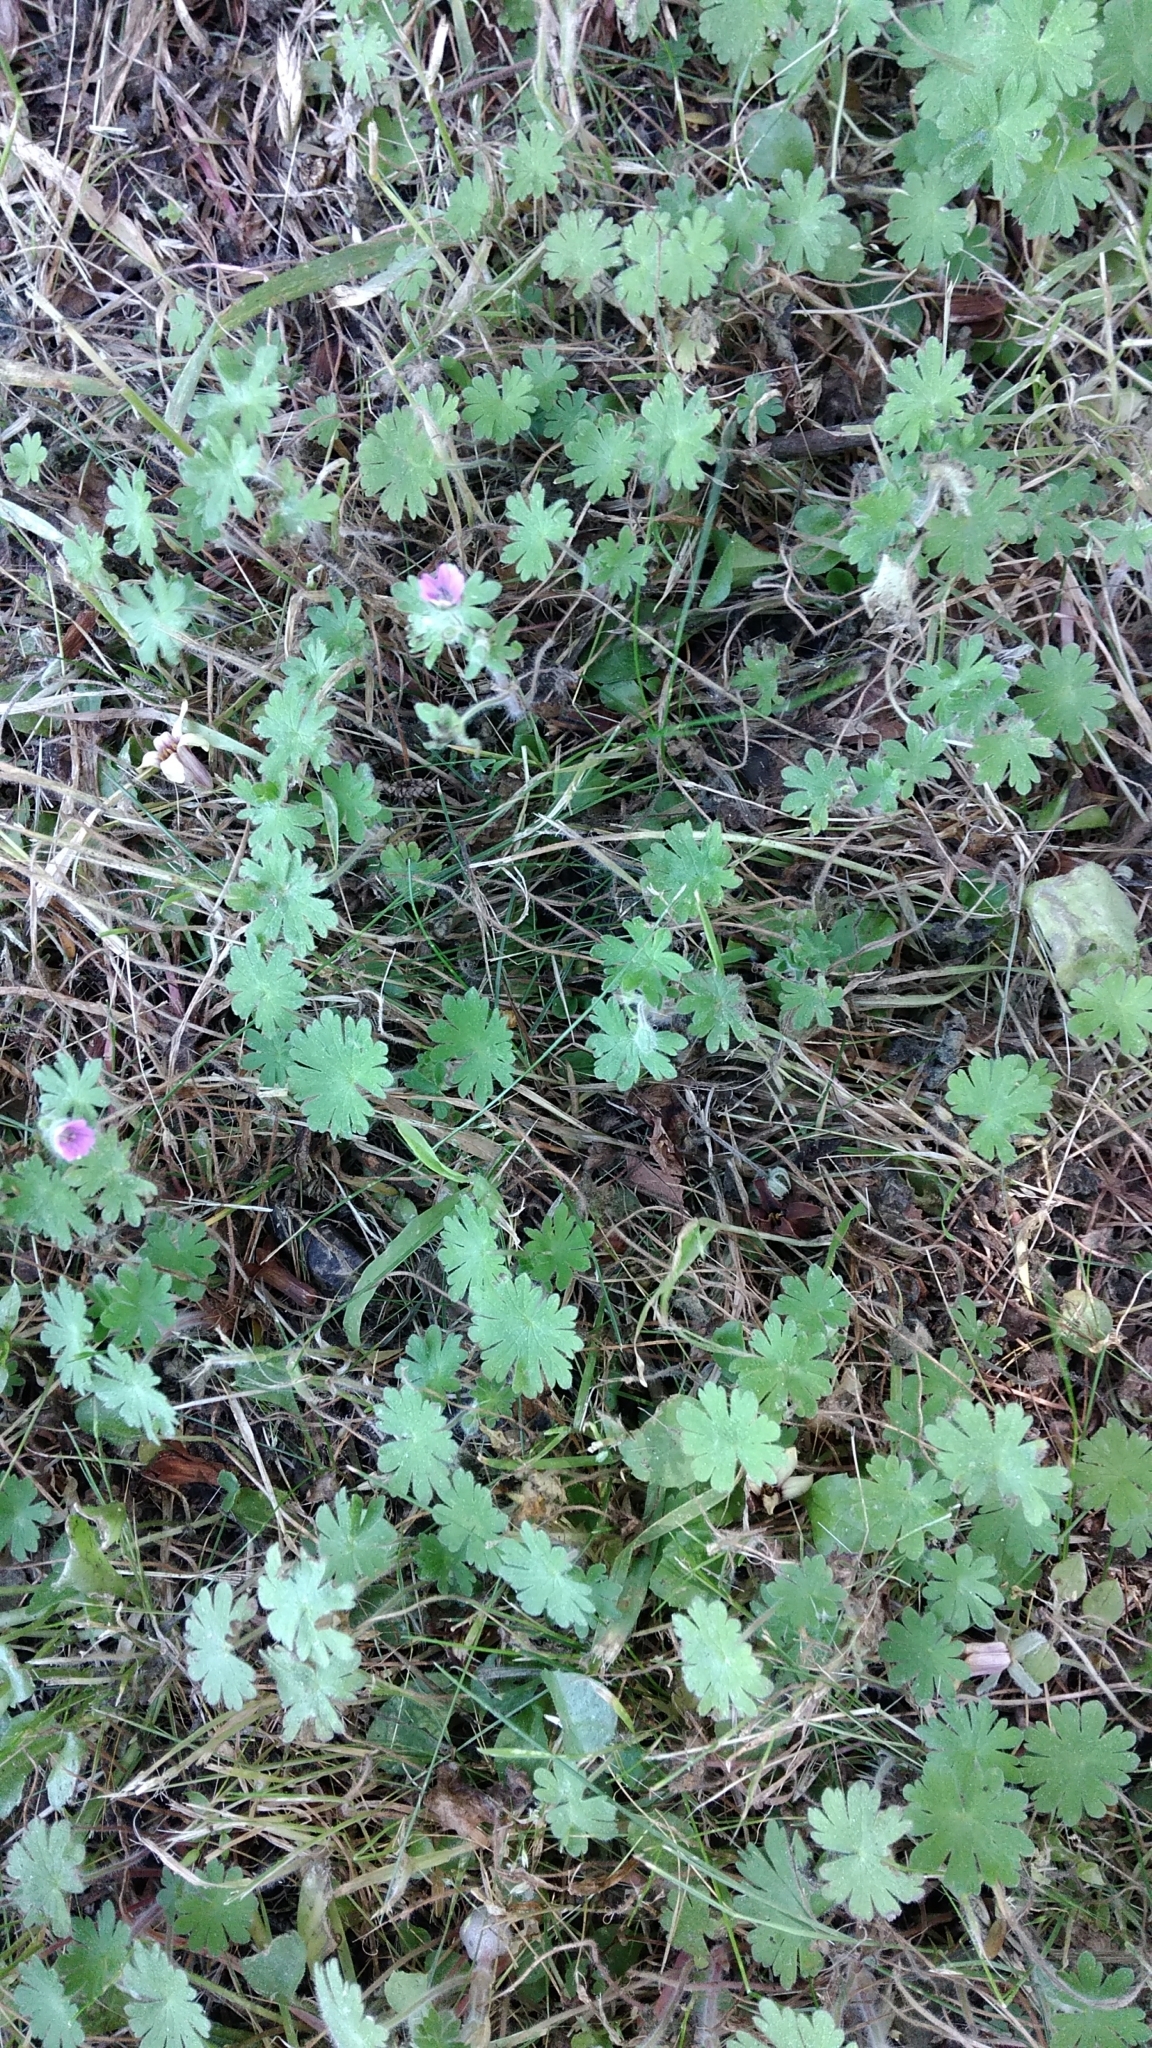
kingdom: Plantae
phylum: Tracheophyta
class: Magnoliopsida
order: Geraniales
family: Geraniaceae
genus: Geranium
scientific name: Geranium molle
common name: Dove's-foot crane's-bill
